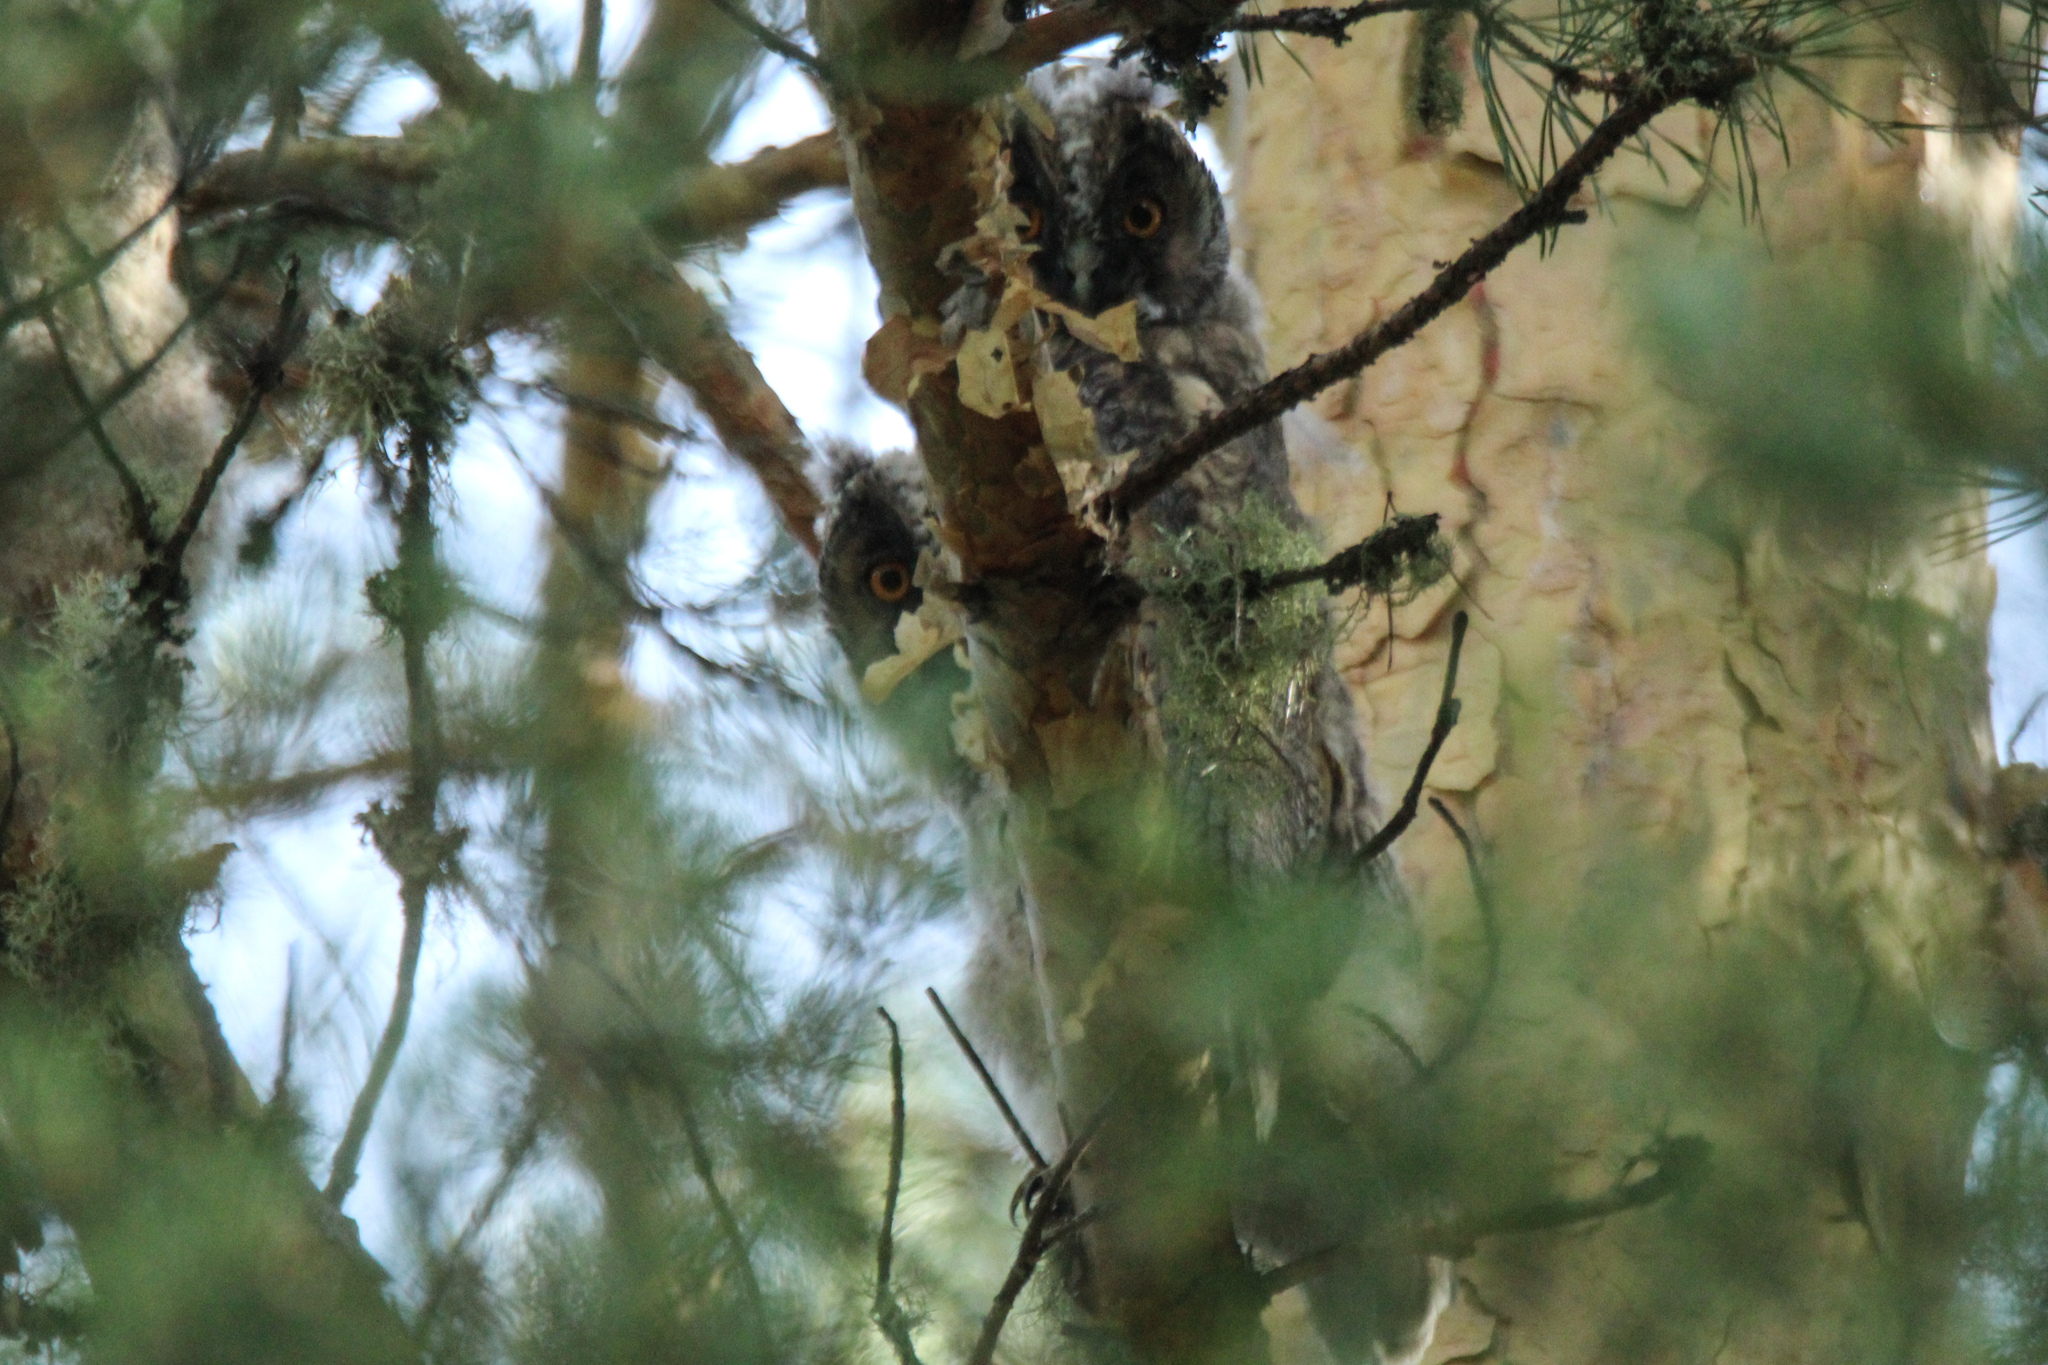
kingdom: Animalia
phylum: Chordata
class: Aves
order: Strigiformes
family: Strigidae
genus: Asio
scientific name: Asio otus
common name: Long-eared owl
